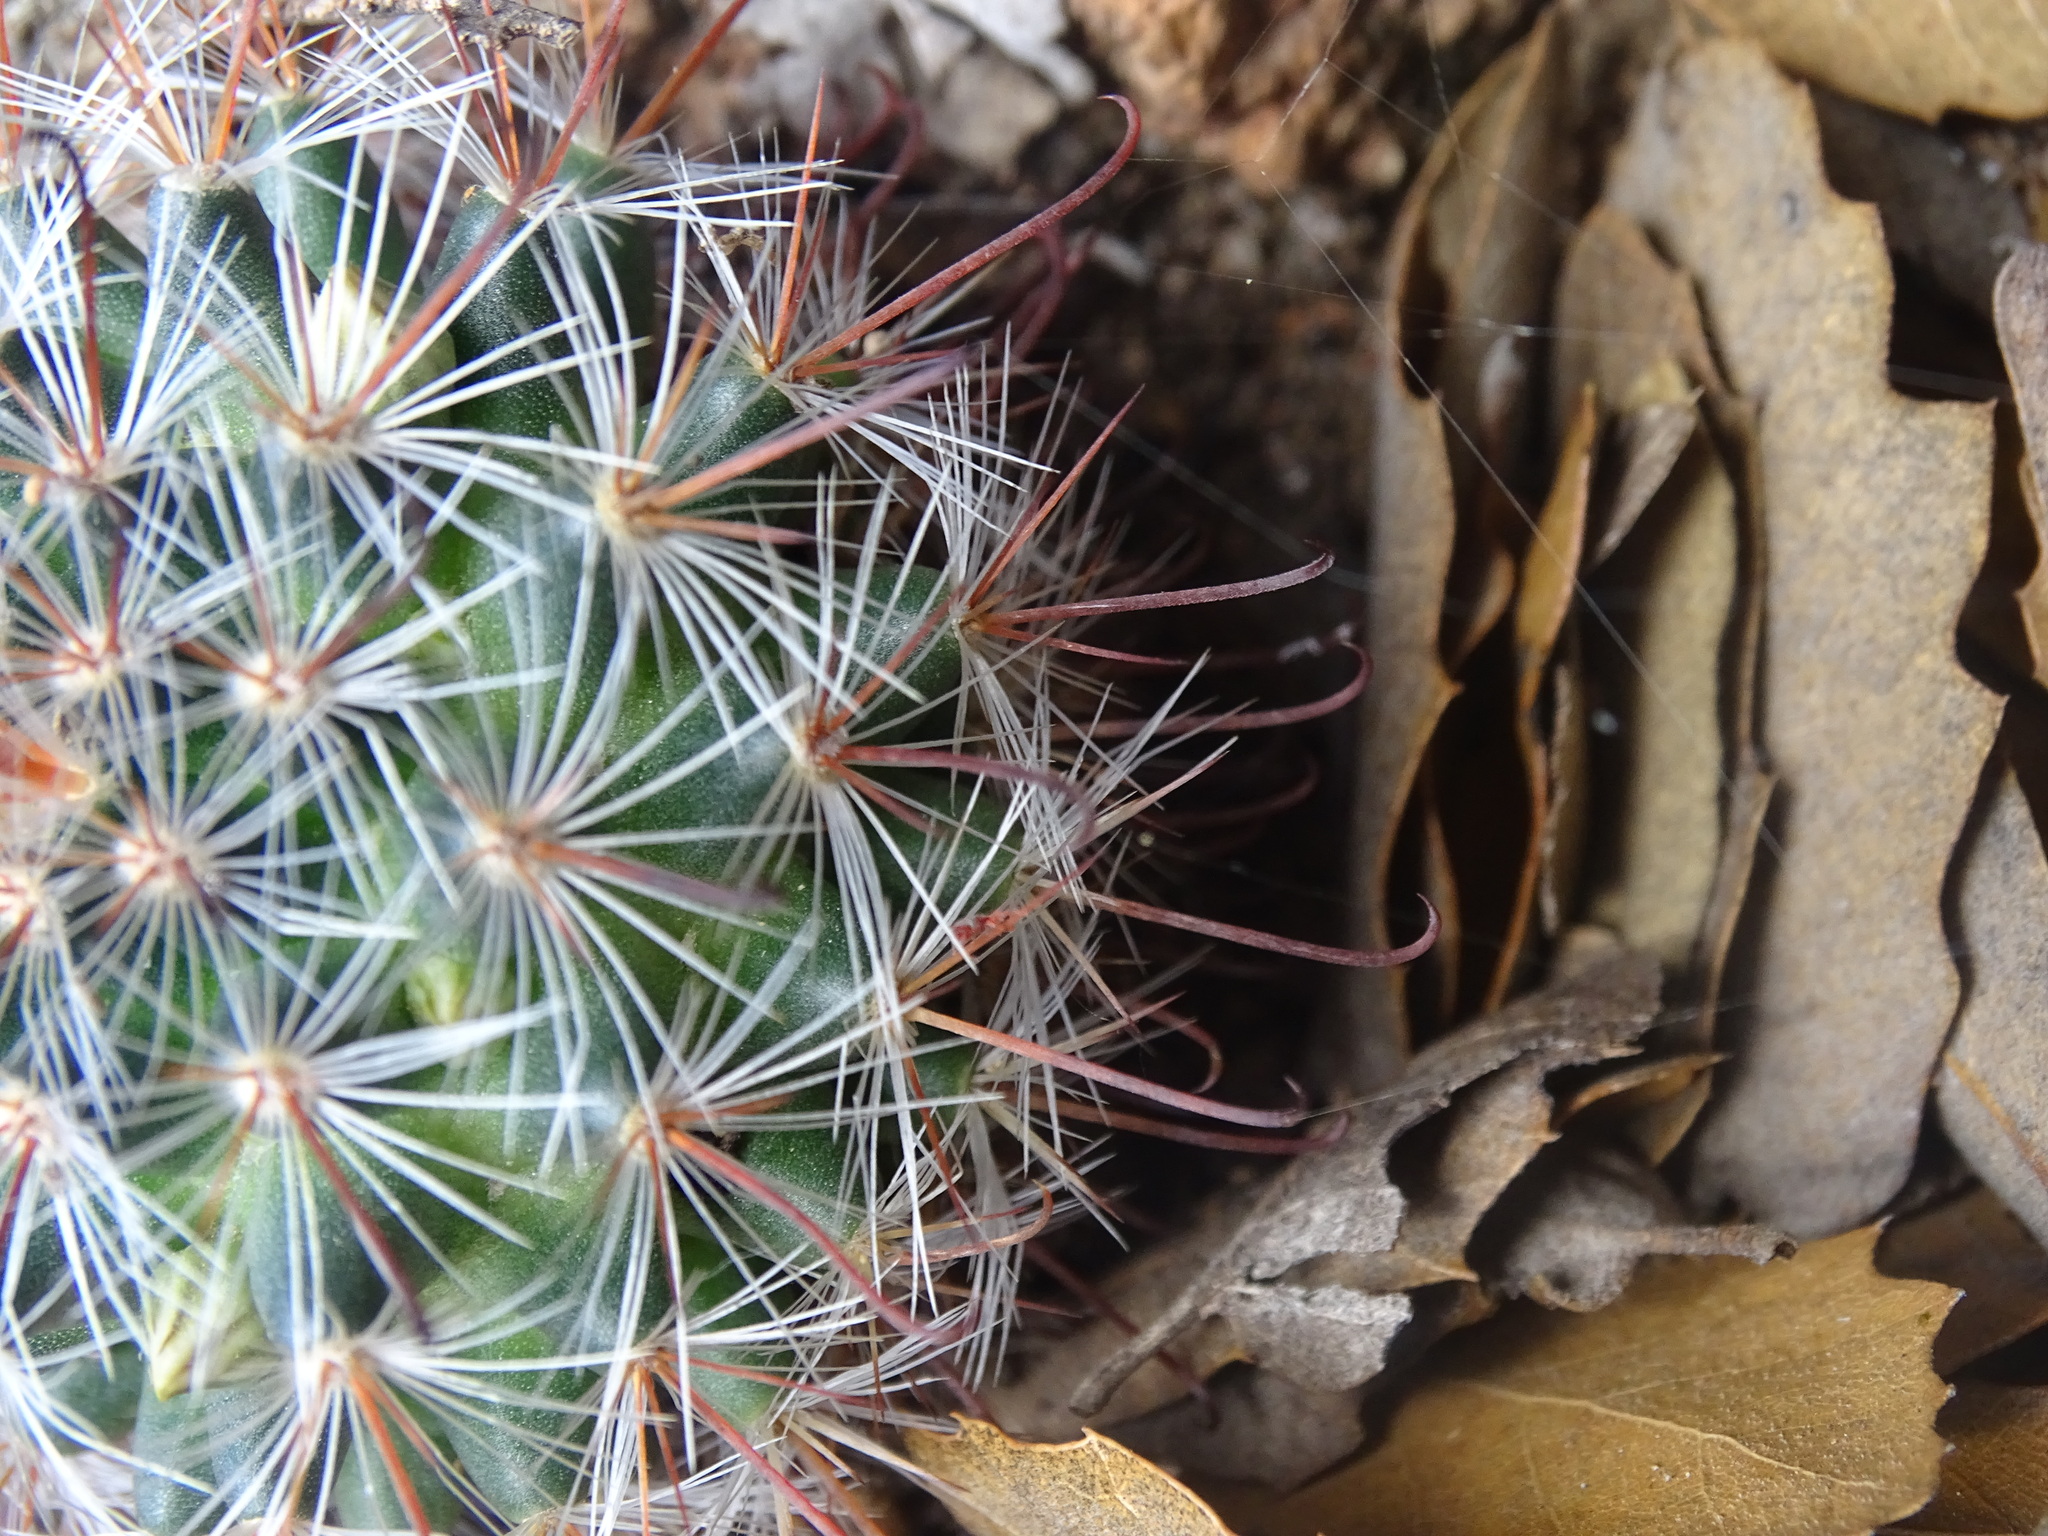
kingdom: Plantae
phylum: Tracheophyta
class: Magnoliopsida
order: Caryophyllales
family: Cactaceae
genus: Mammillaria
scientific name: Mammillaria moelleriana
